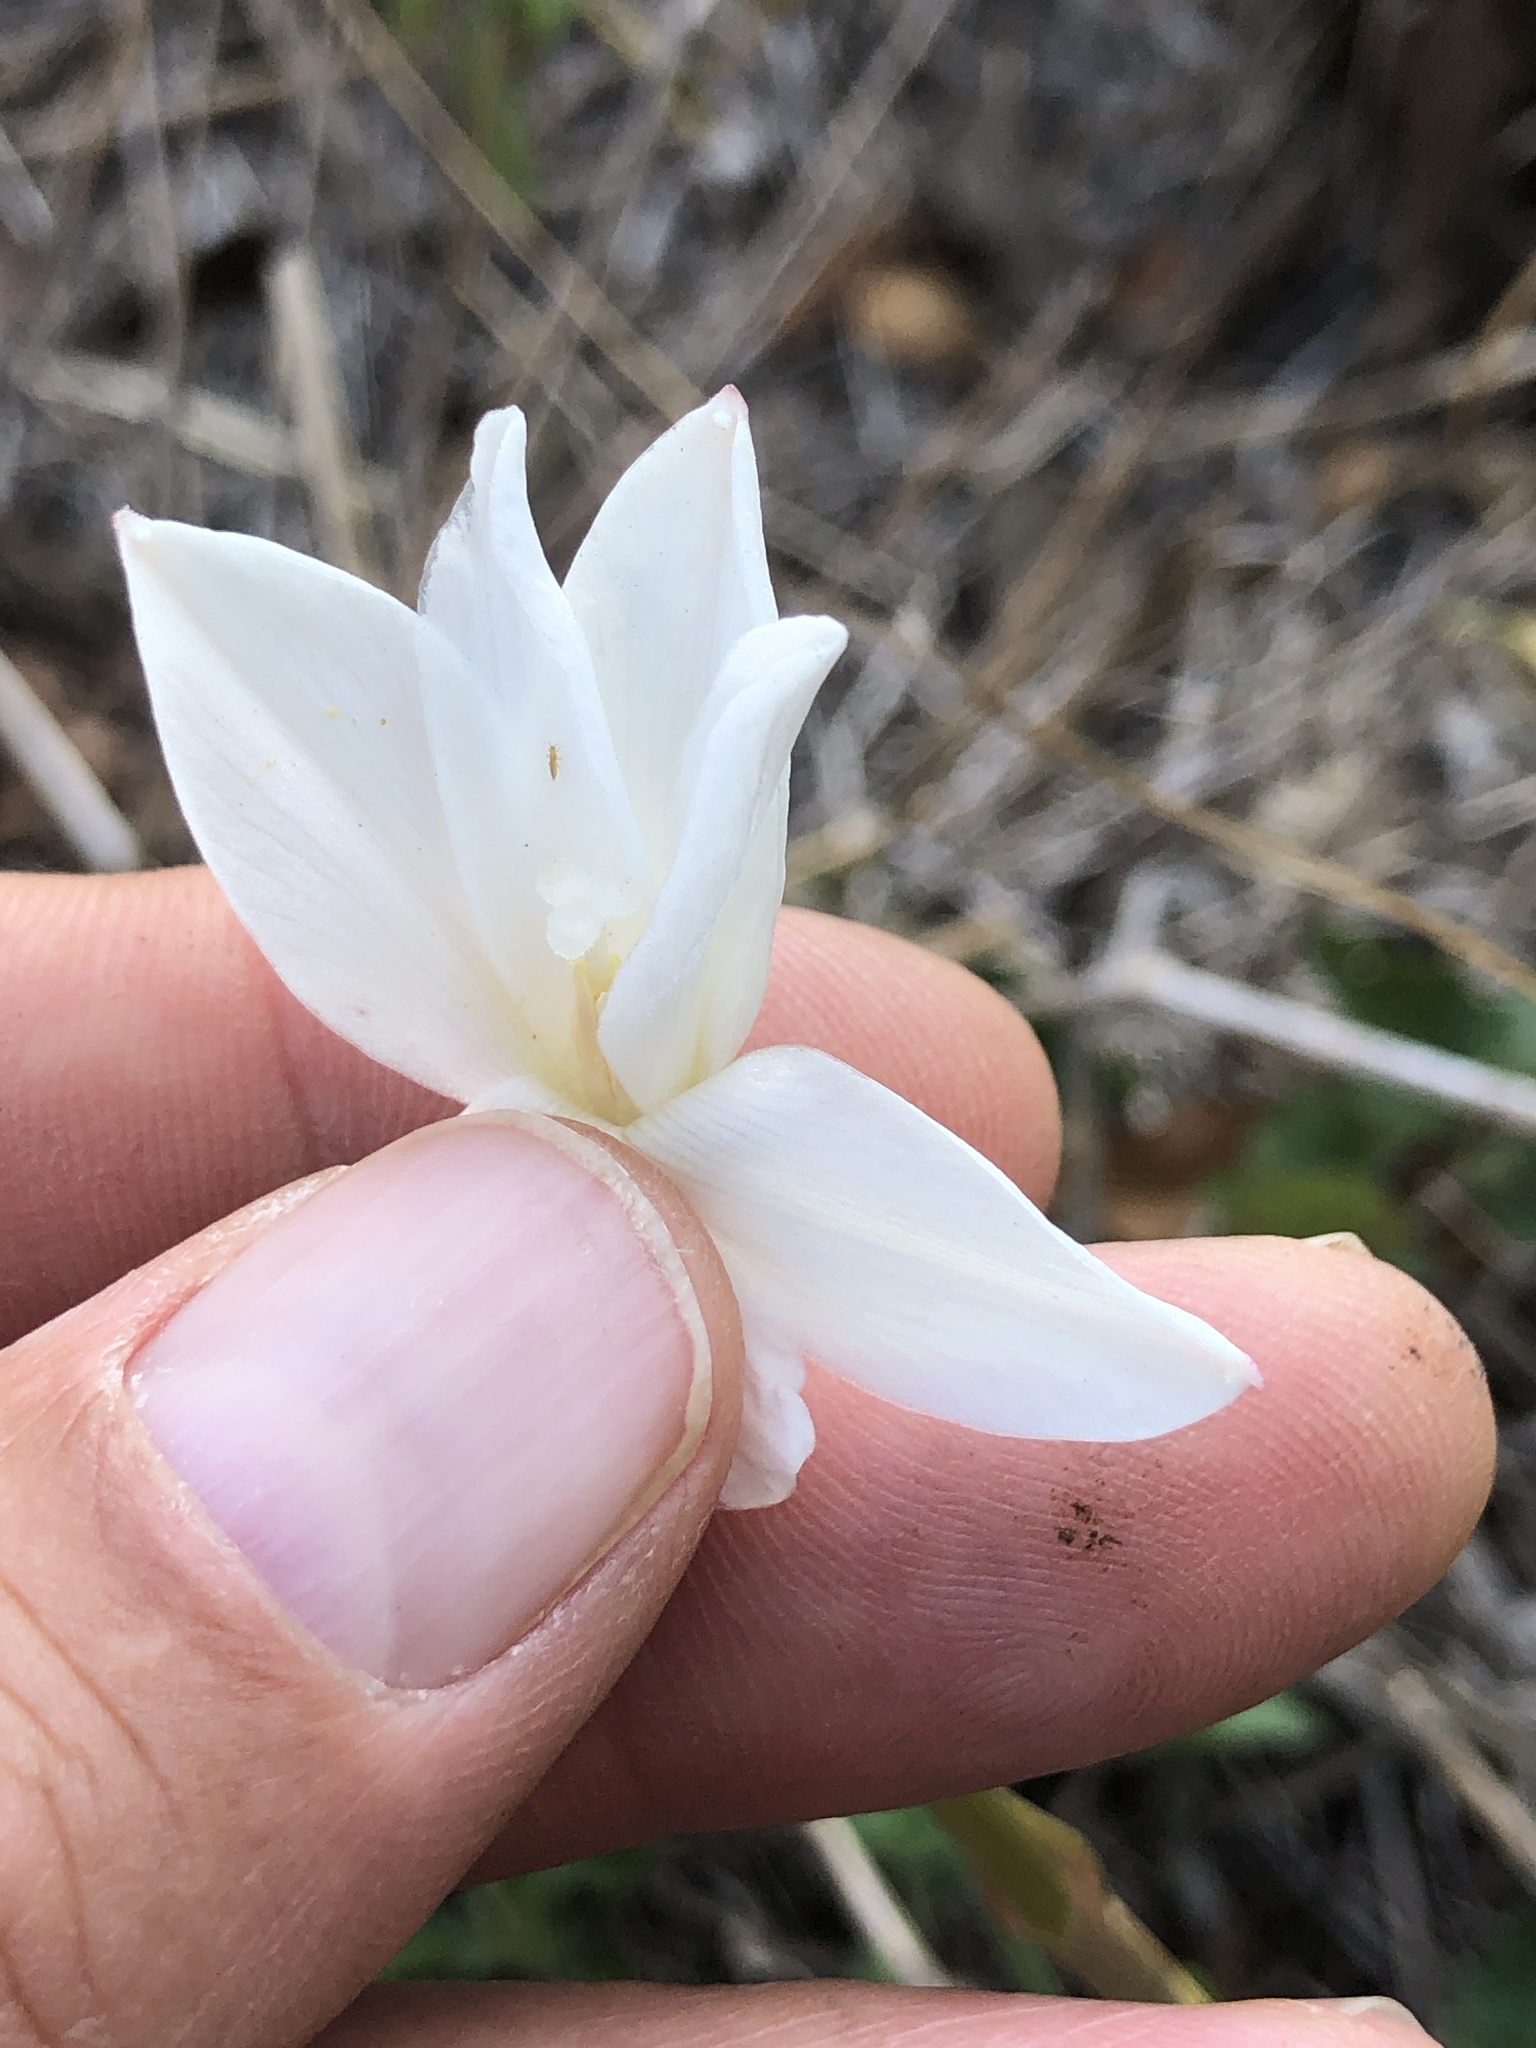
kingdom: Plantae
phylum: Tracheophyta
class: Liliopsida
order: Asparagales
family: Amaryllidaceae
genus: Zephyranthes
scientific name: Zephyranthes chlorosolen
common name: Evening rain-lily
